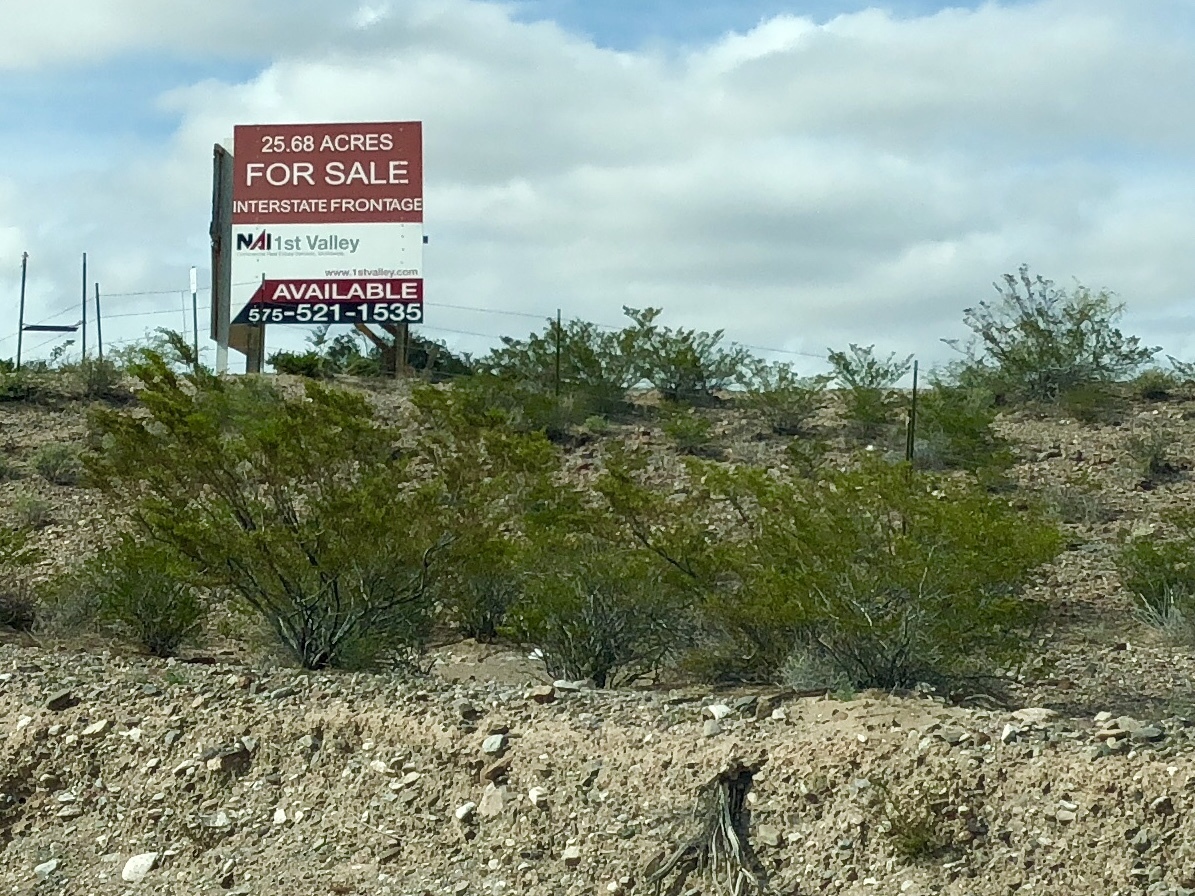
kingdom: Plantae
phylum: Tracheophyta
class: Magnoliopsida
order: Zygophyllales
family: Zygophyllaceae
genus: Larrea
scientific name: Larrea tridentata
